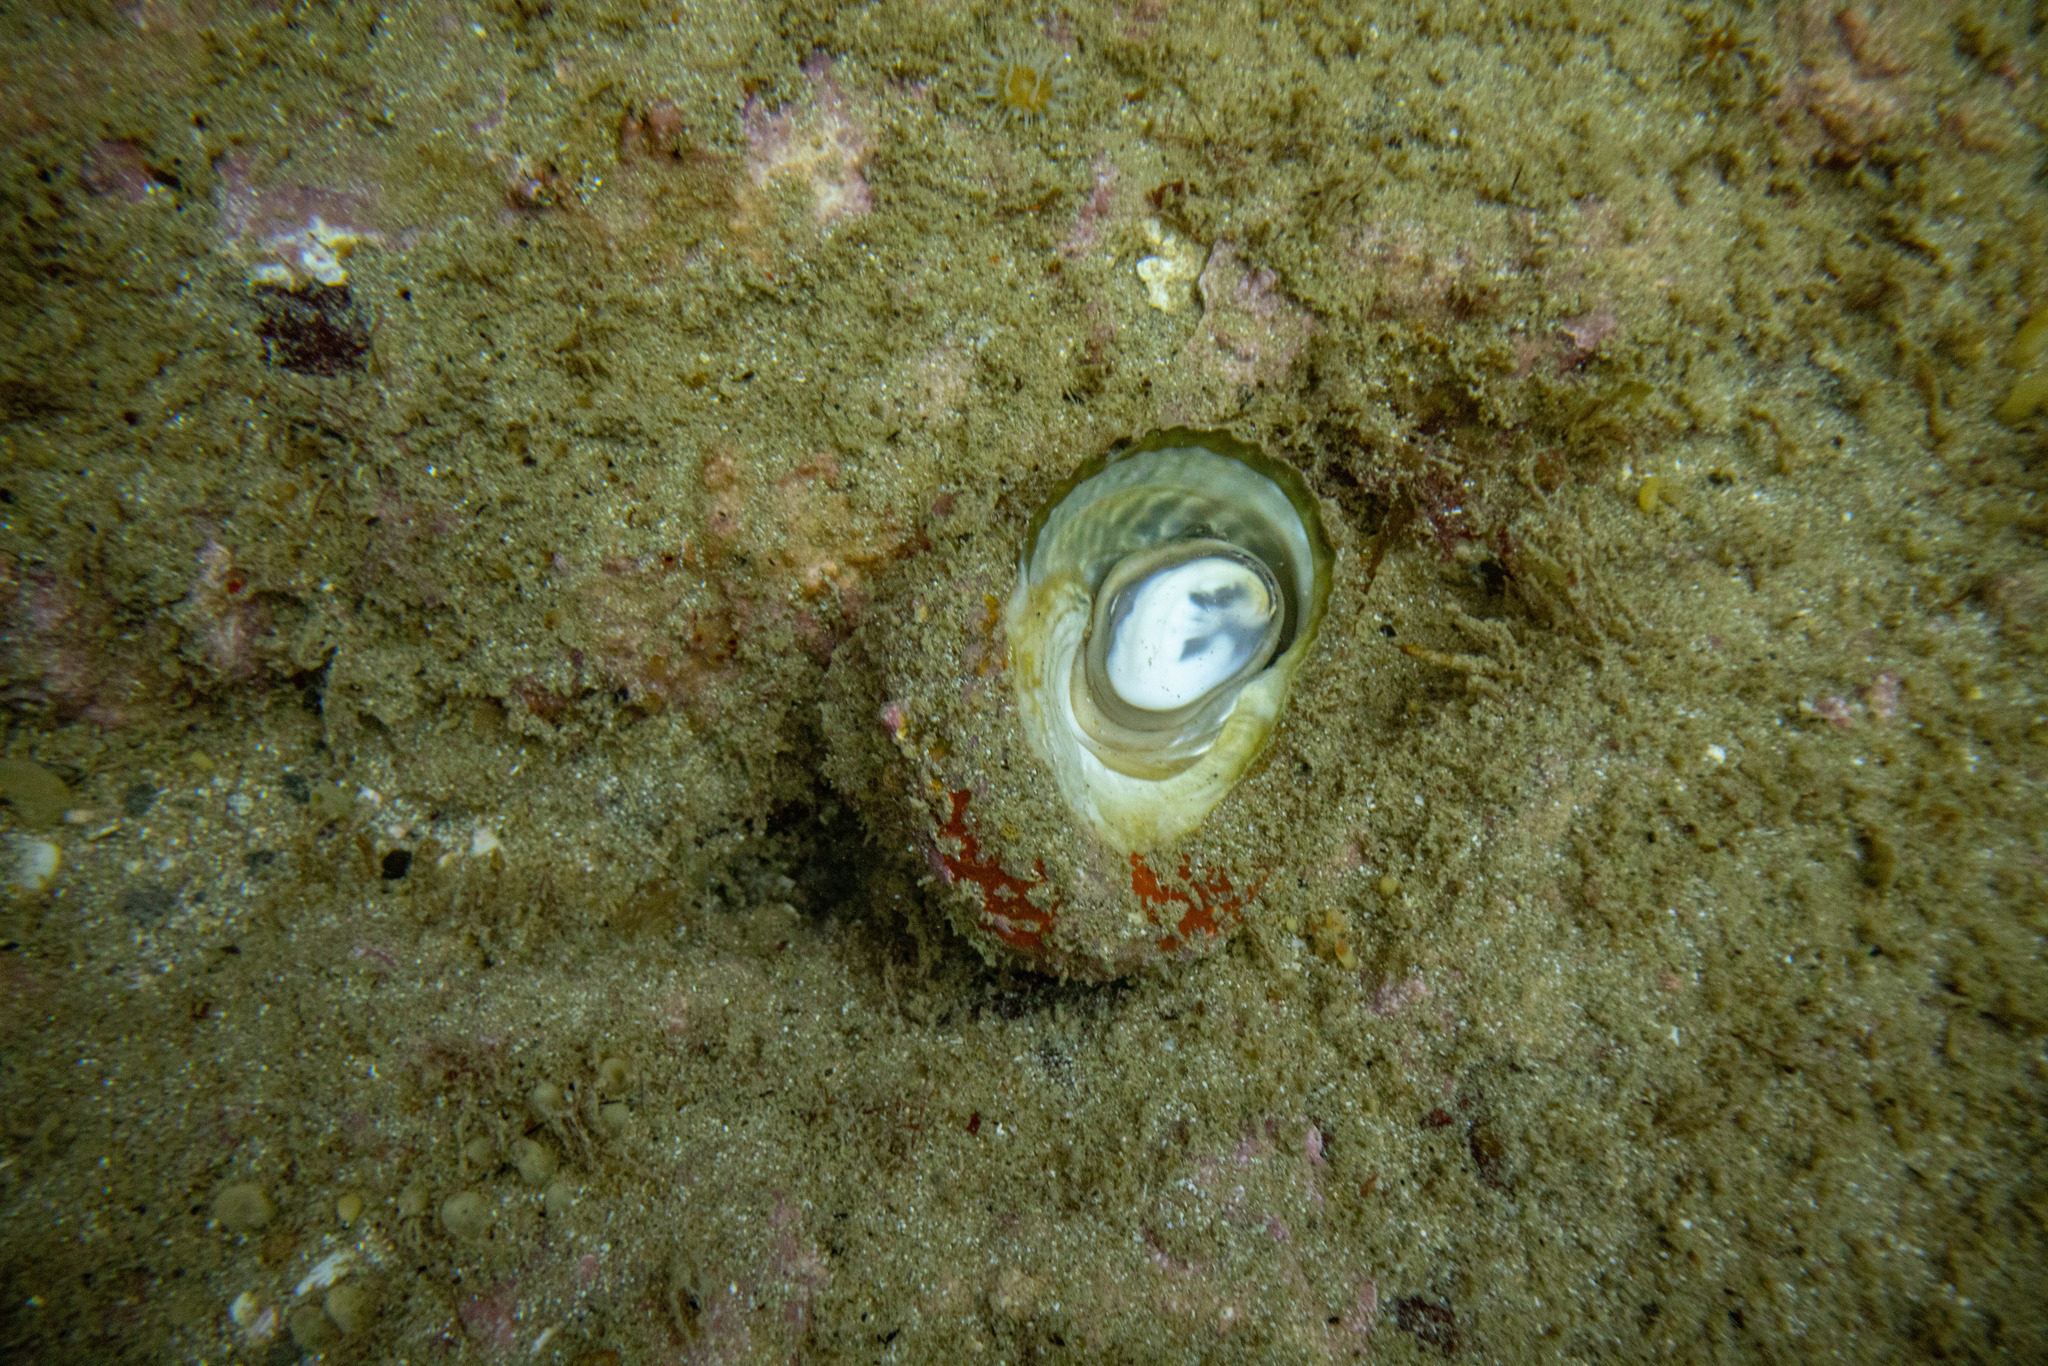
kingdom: Animalia
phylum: Mollusca
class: Gastropoda
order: Trochida
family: Turbinidae
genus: Cookia
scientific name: Cookia sulcata
